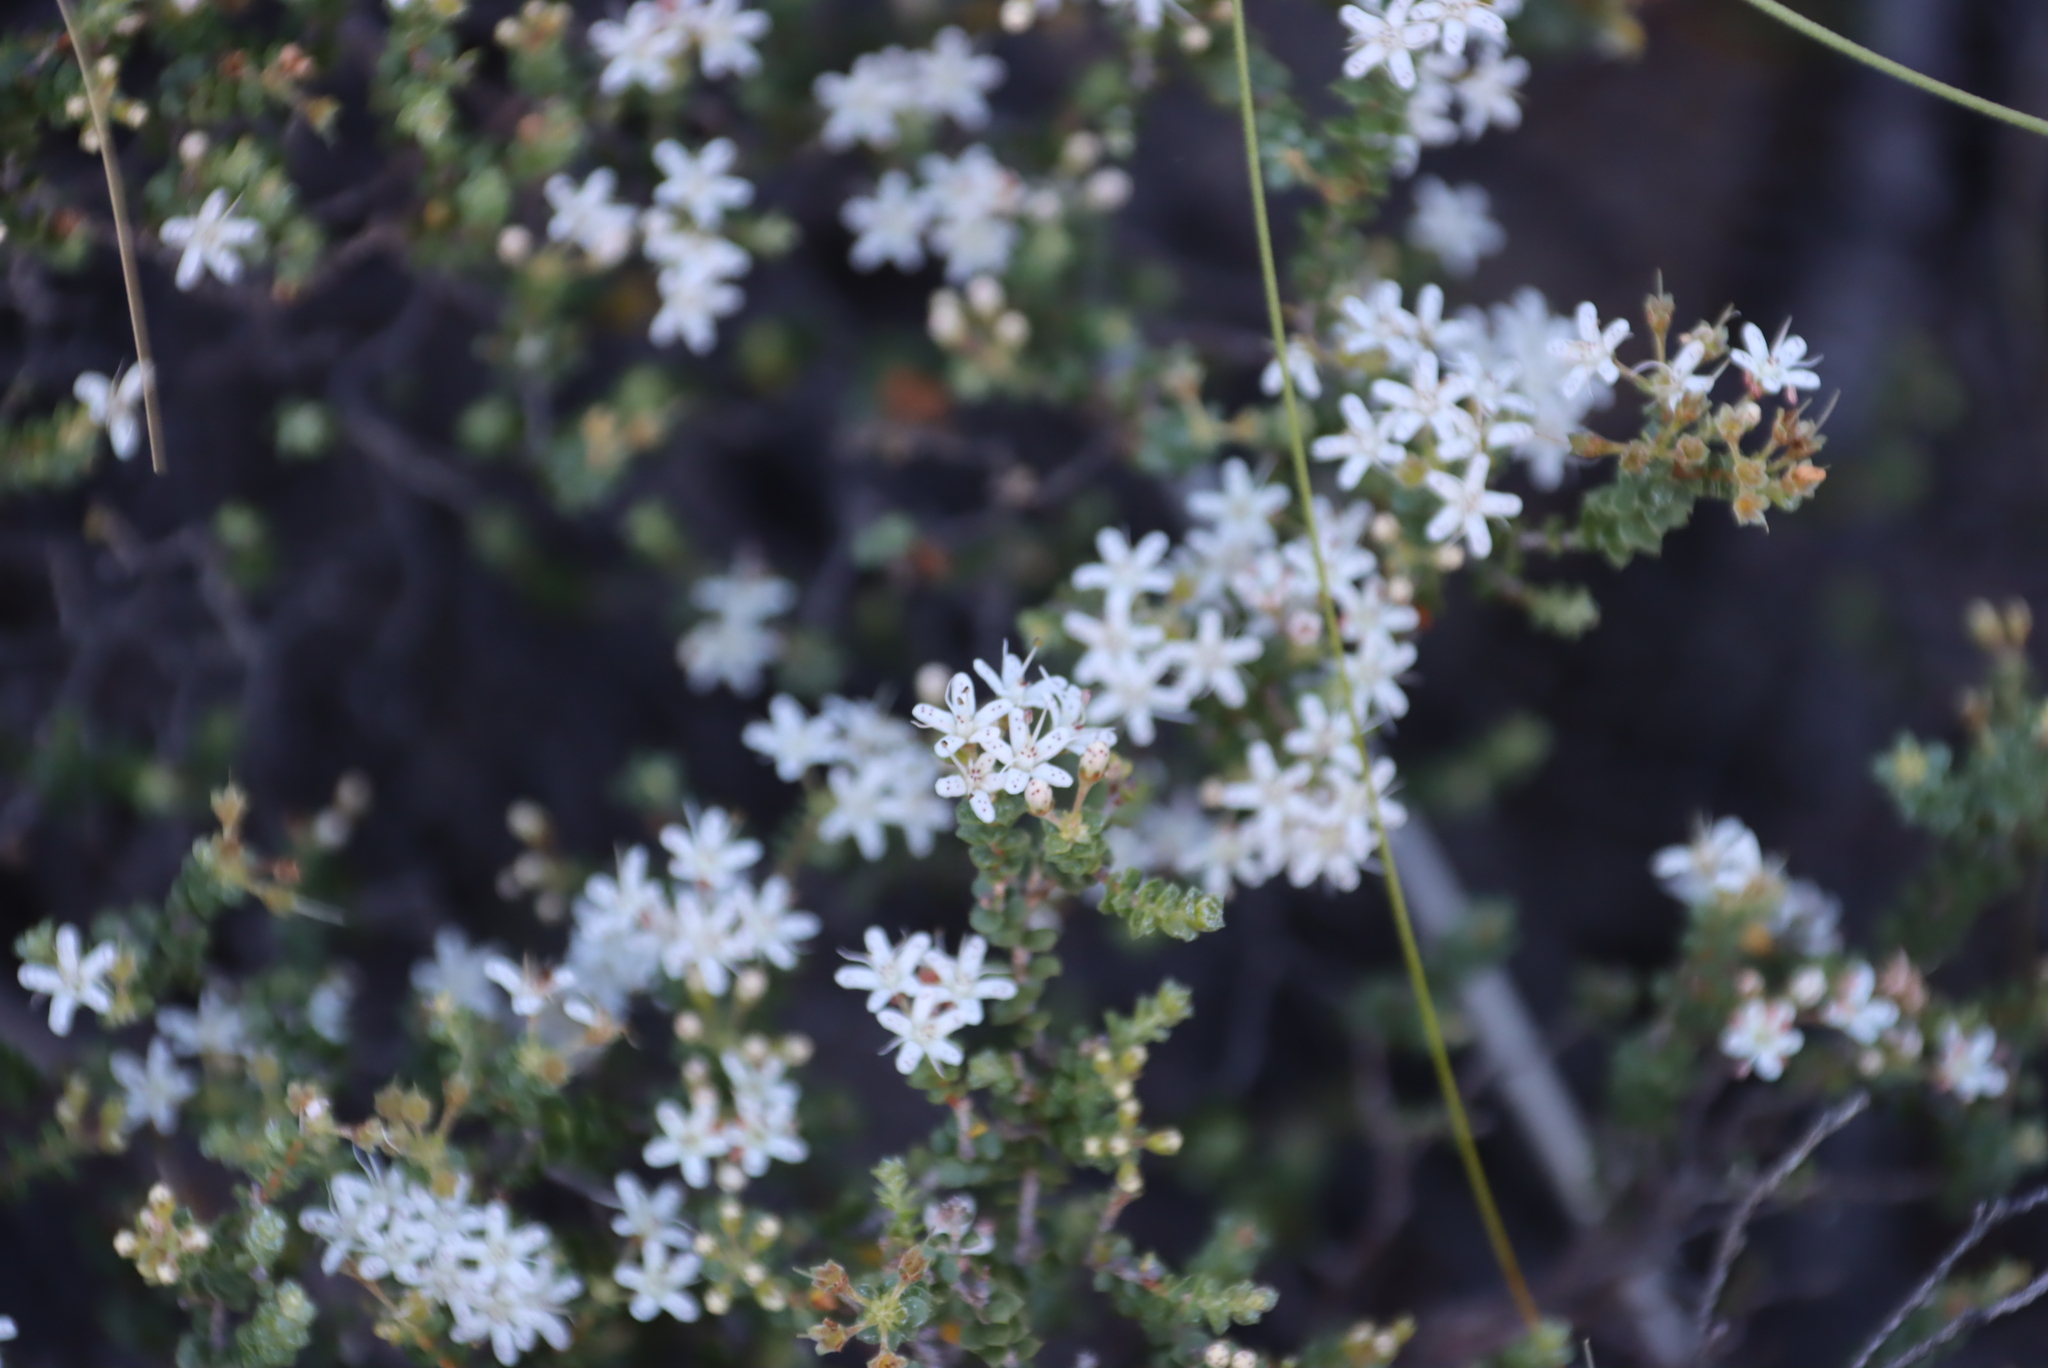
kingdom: Plantae
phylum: Tracheophyta
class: Magnoliopsida
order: Sapindales
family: Rutaceae
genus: Agathosma
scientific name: Agathosma recurvifolia
